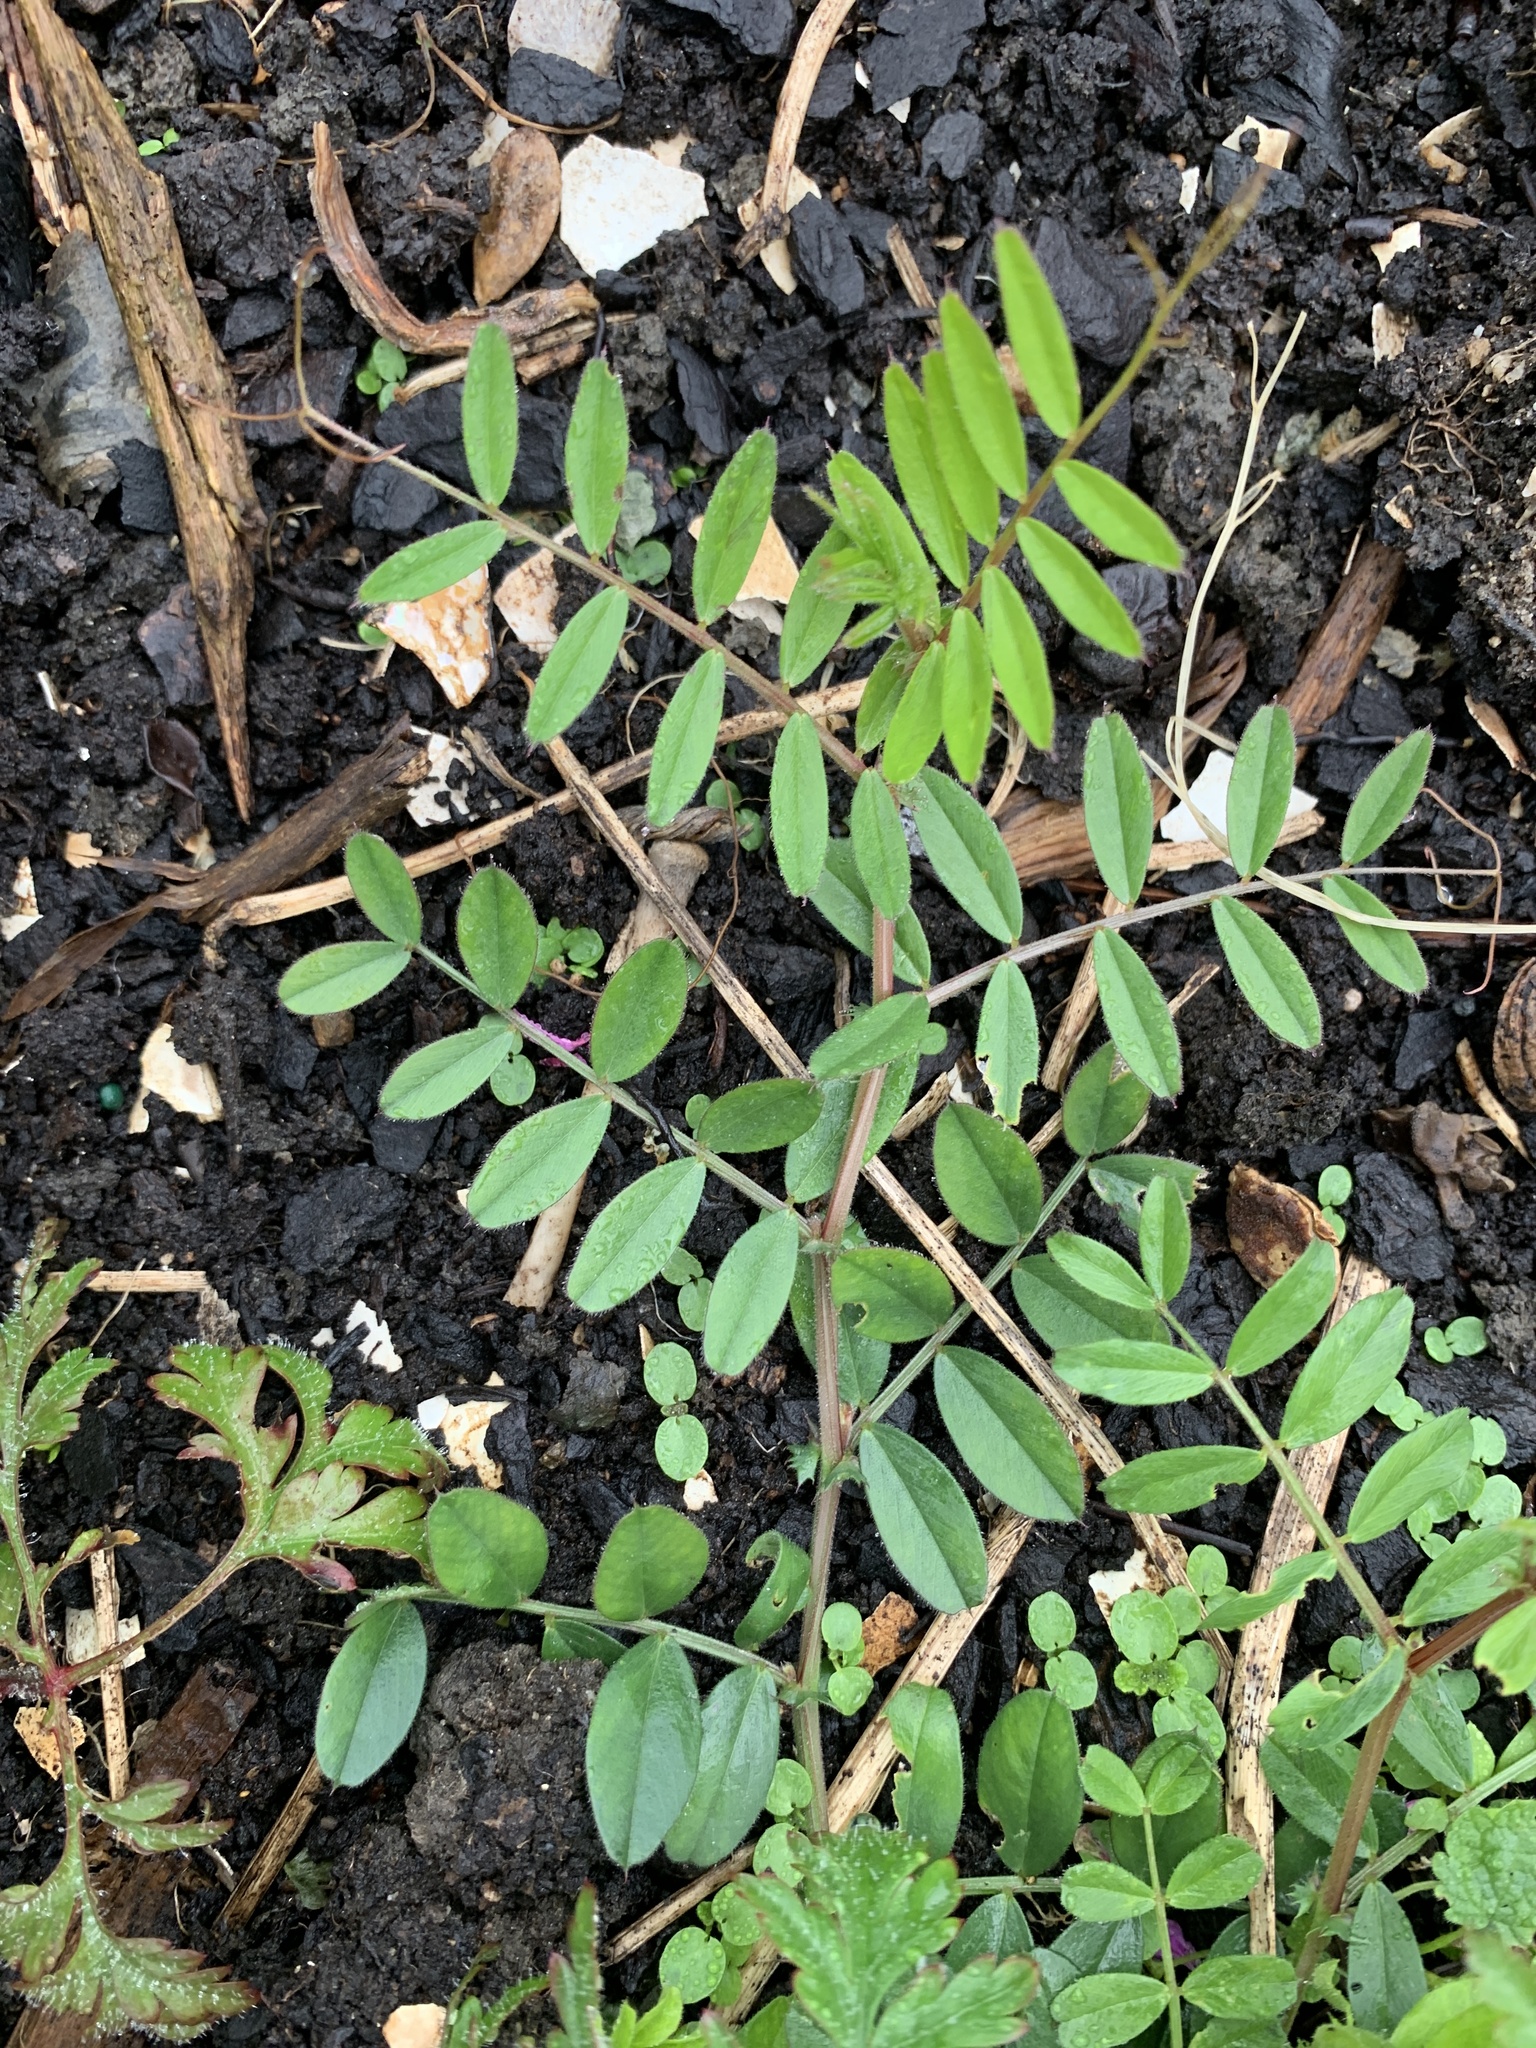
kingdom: Plantae
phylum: Tracheophyta
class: Magnoliopsida
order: Fabales
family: Fabaceae
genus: Vicia
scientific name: Vicia sativa
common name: Garden vetch
